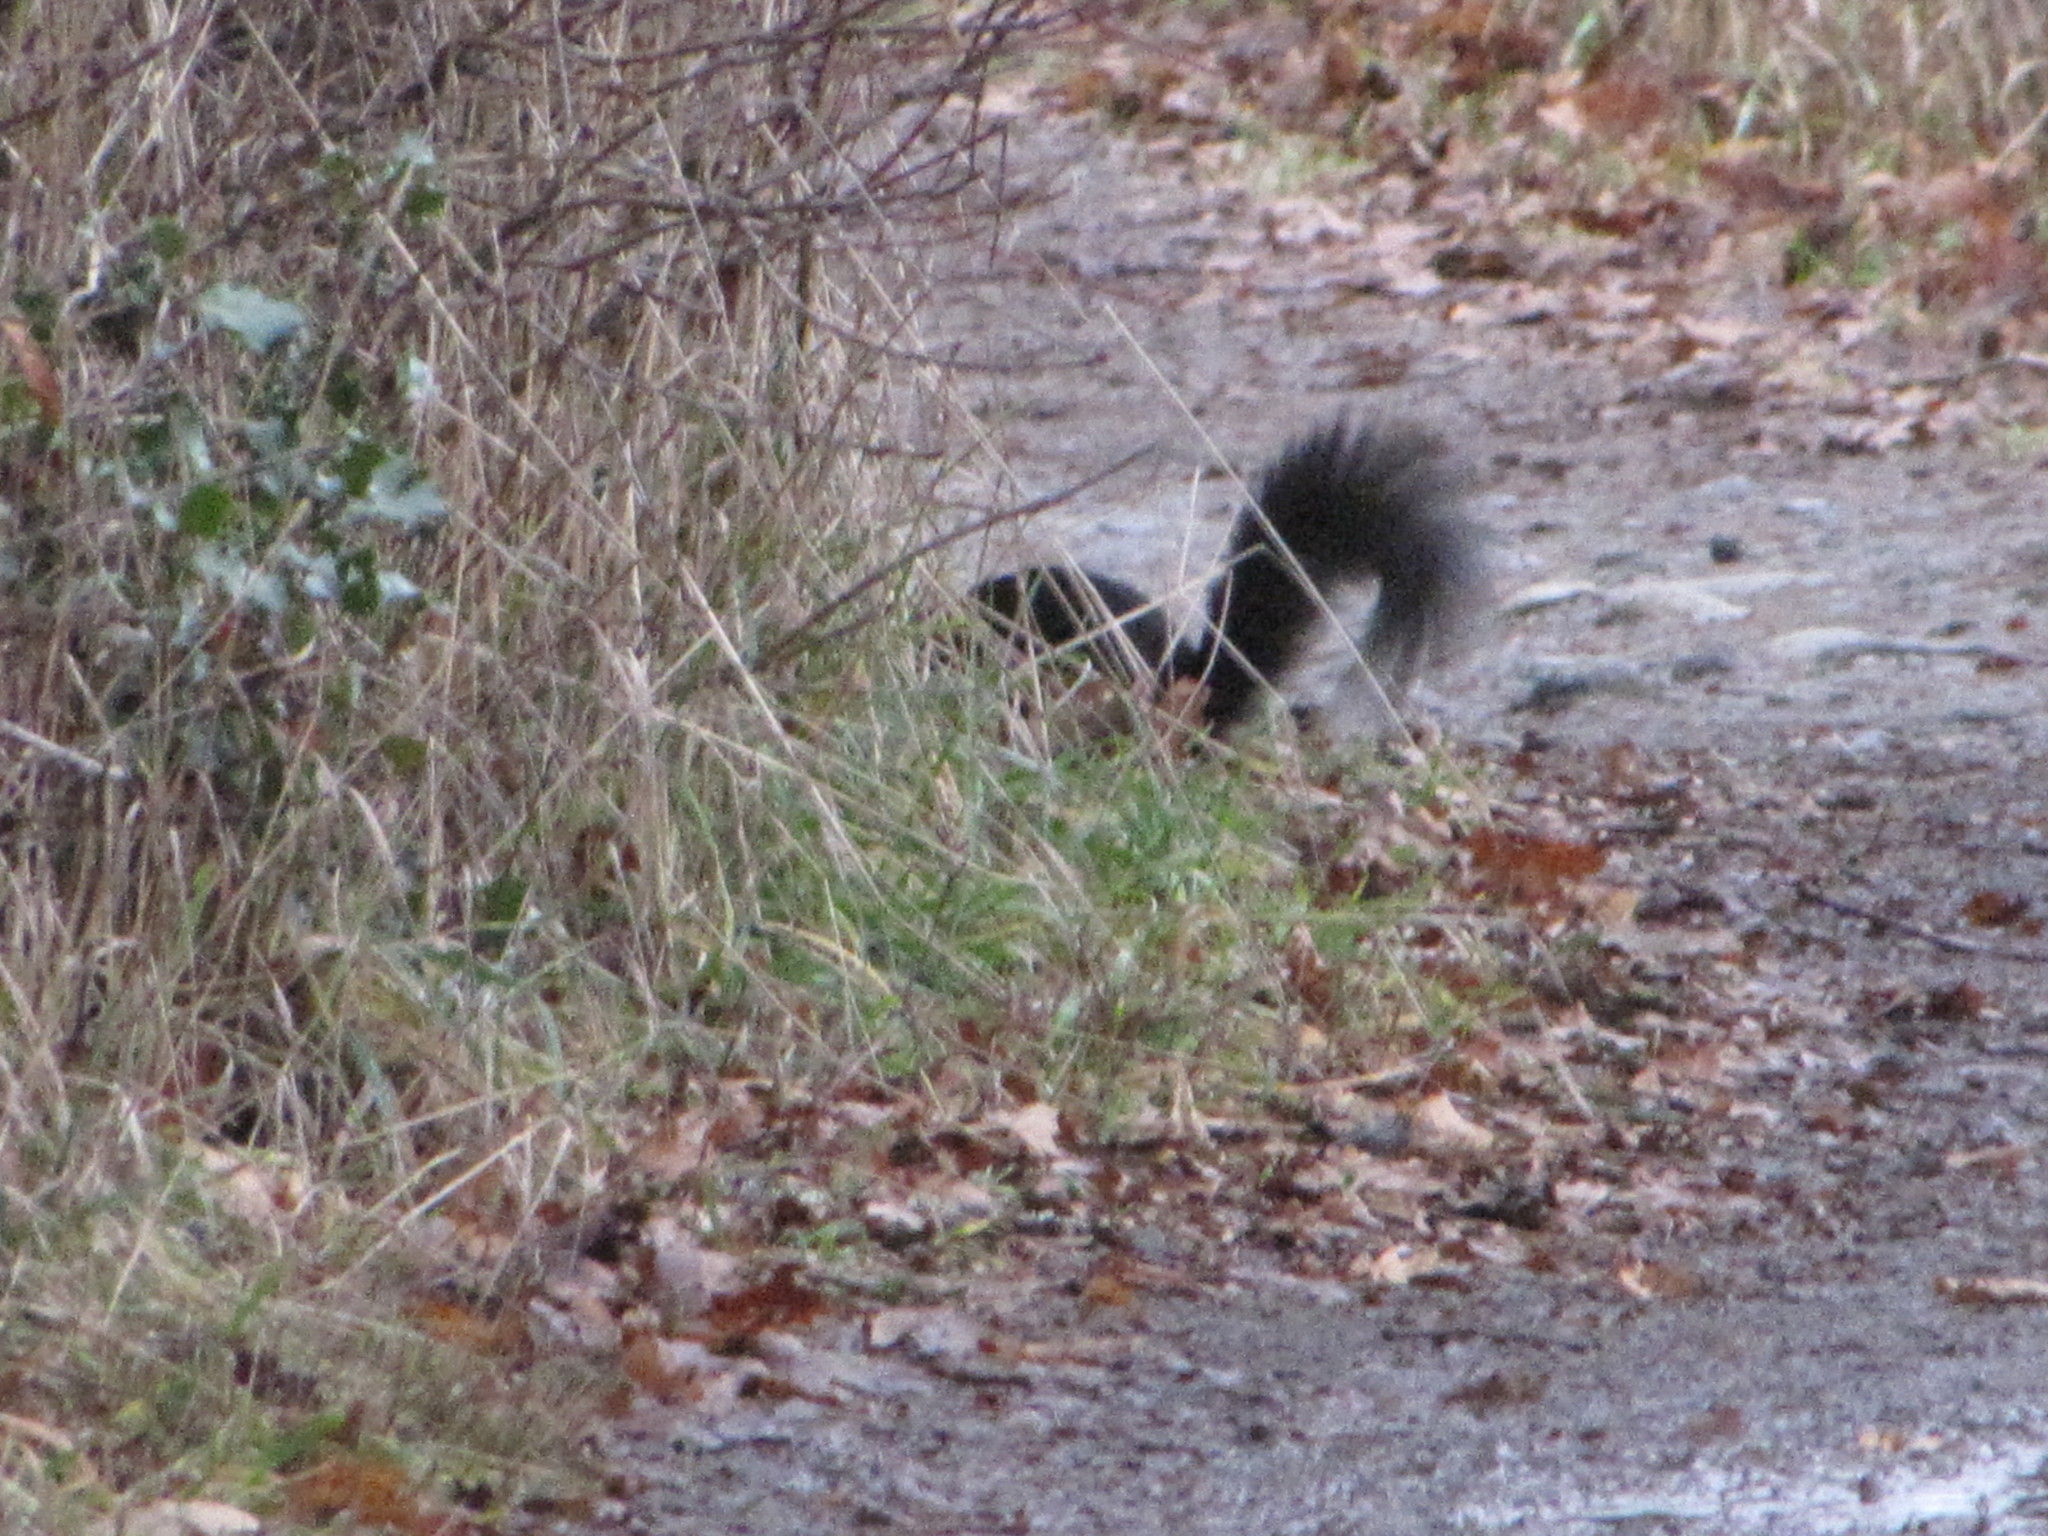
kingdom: Animalia
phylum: Chordata
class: Mammalia
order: Rodentia
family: Sciuridae
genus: Sciurus
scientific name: Sciurus carolinensis
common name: Eastern gray squirrel
